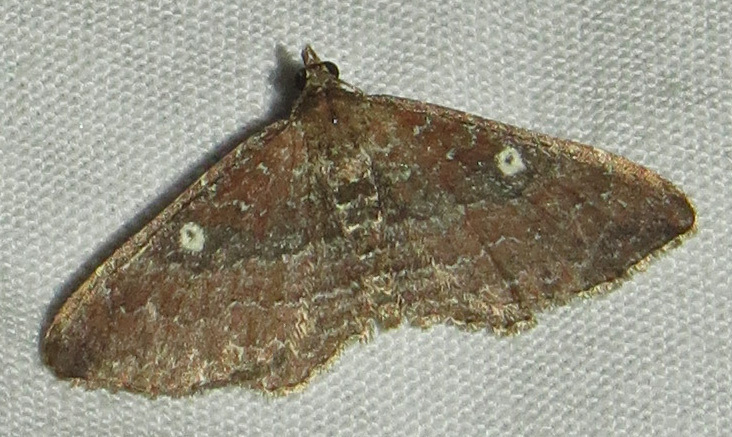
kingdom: Animalia
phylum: Arthropoda
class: Insecta
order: Lepidoptera
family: Geometridae
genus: Orthonama
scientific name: Orthonama obstipata
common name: The gem
